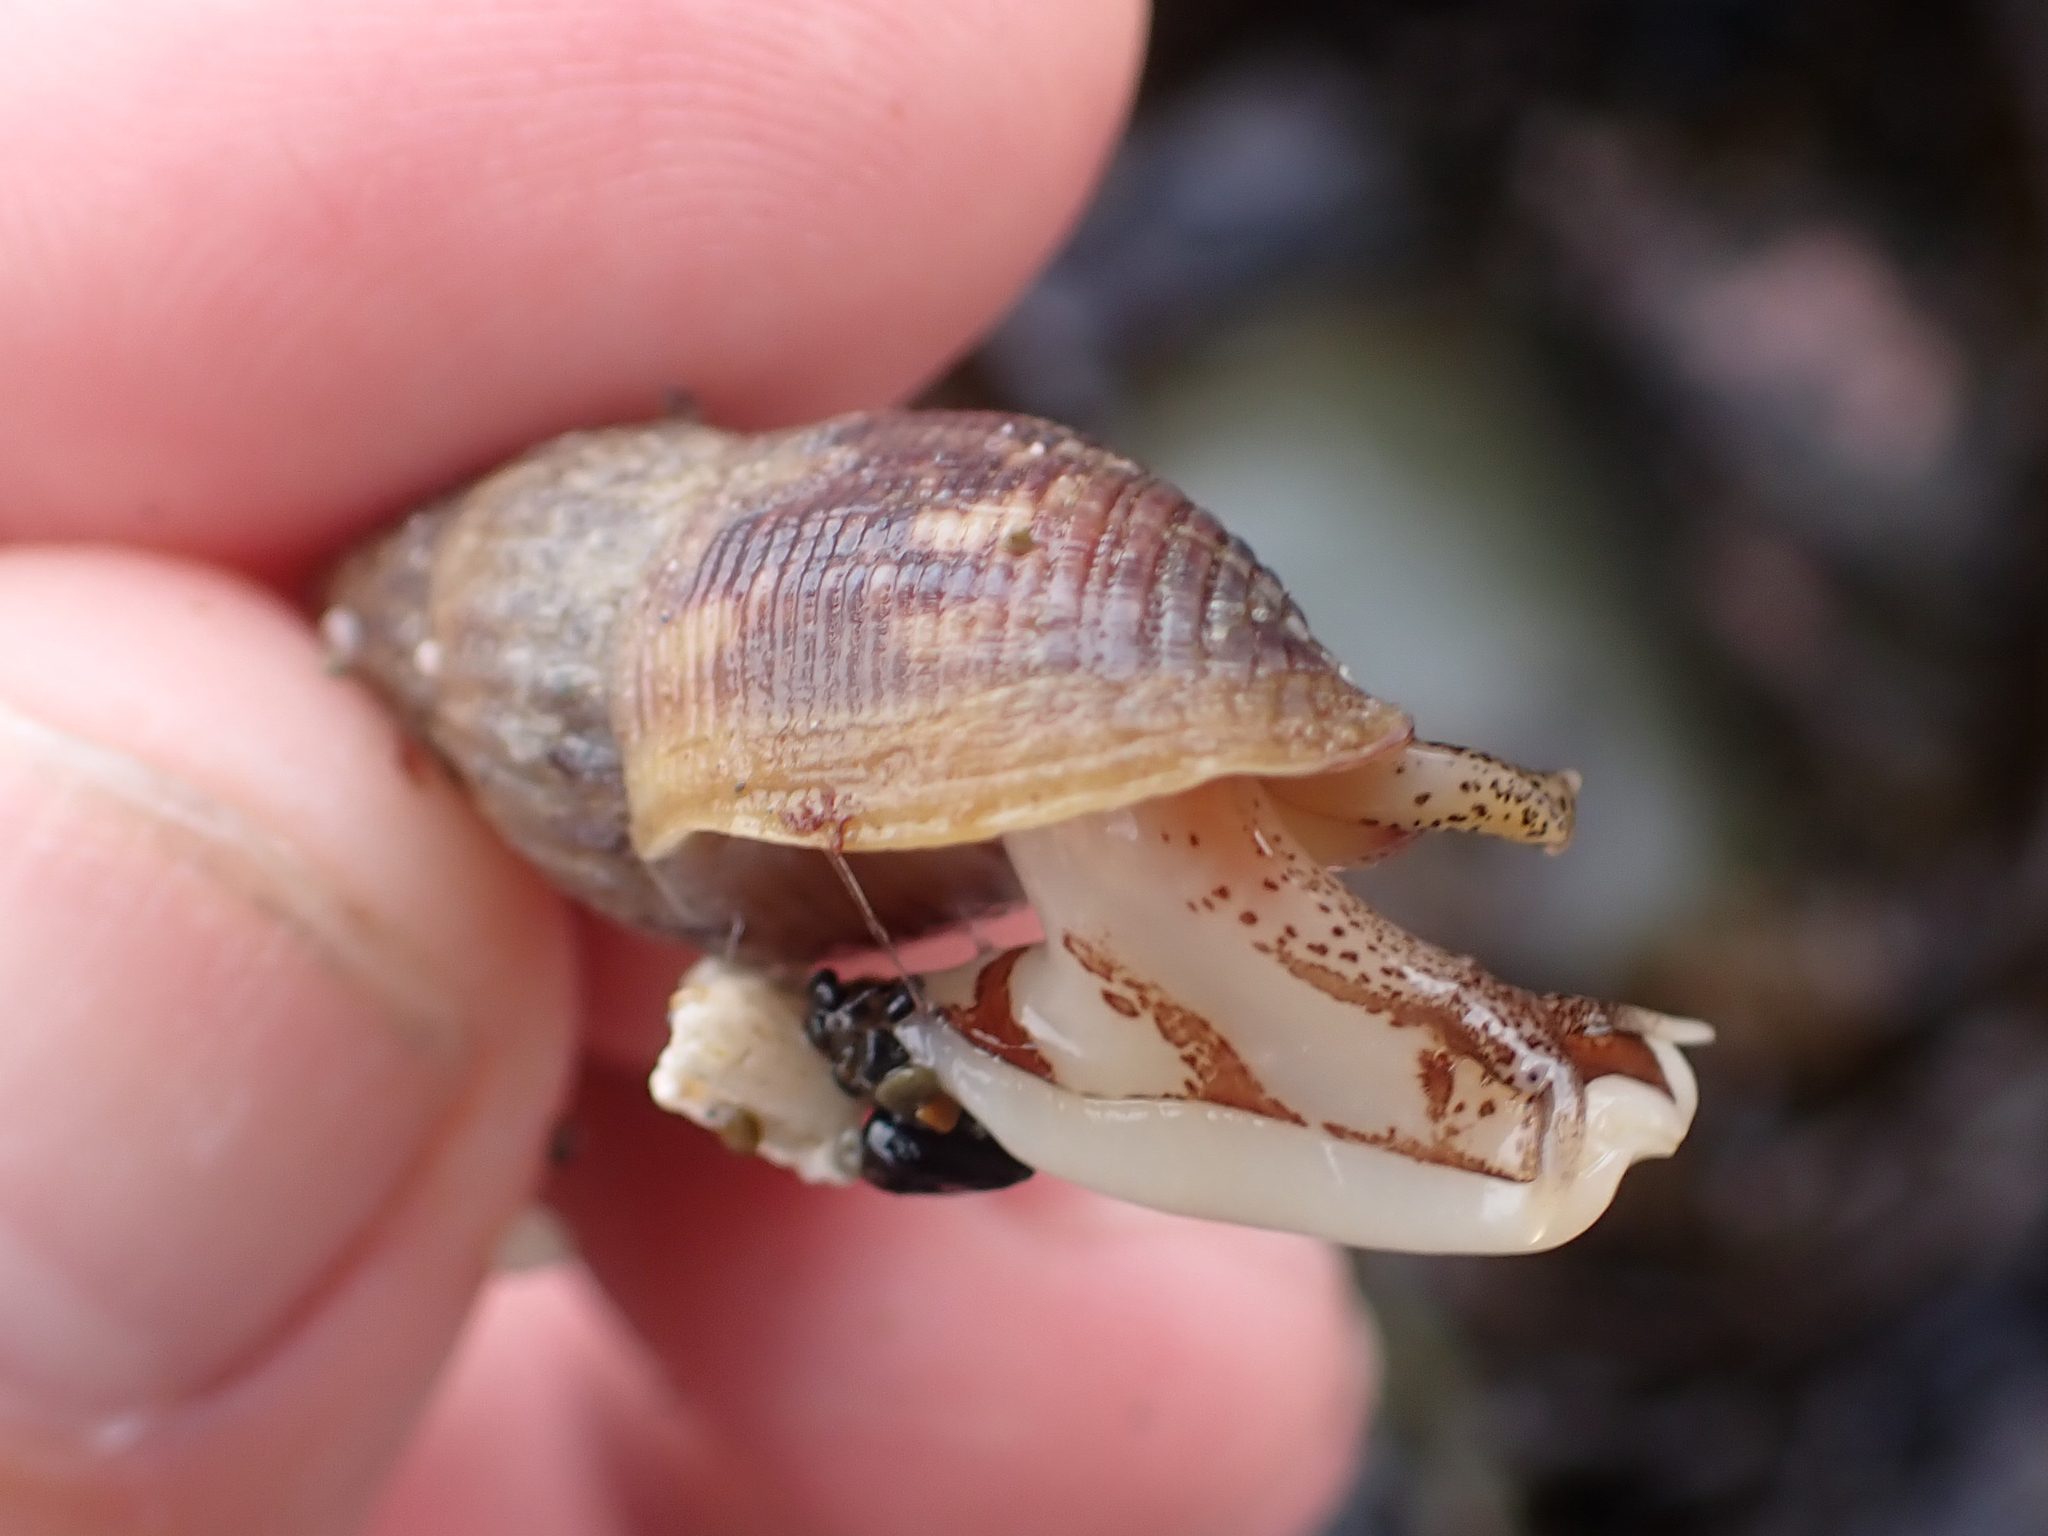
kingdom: Animalia
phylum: Mollusca
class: Gastropoda
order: Neogastropoda
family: Columbellidae
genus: Amphissa
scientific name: Amphissa columbiana
